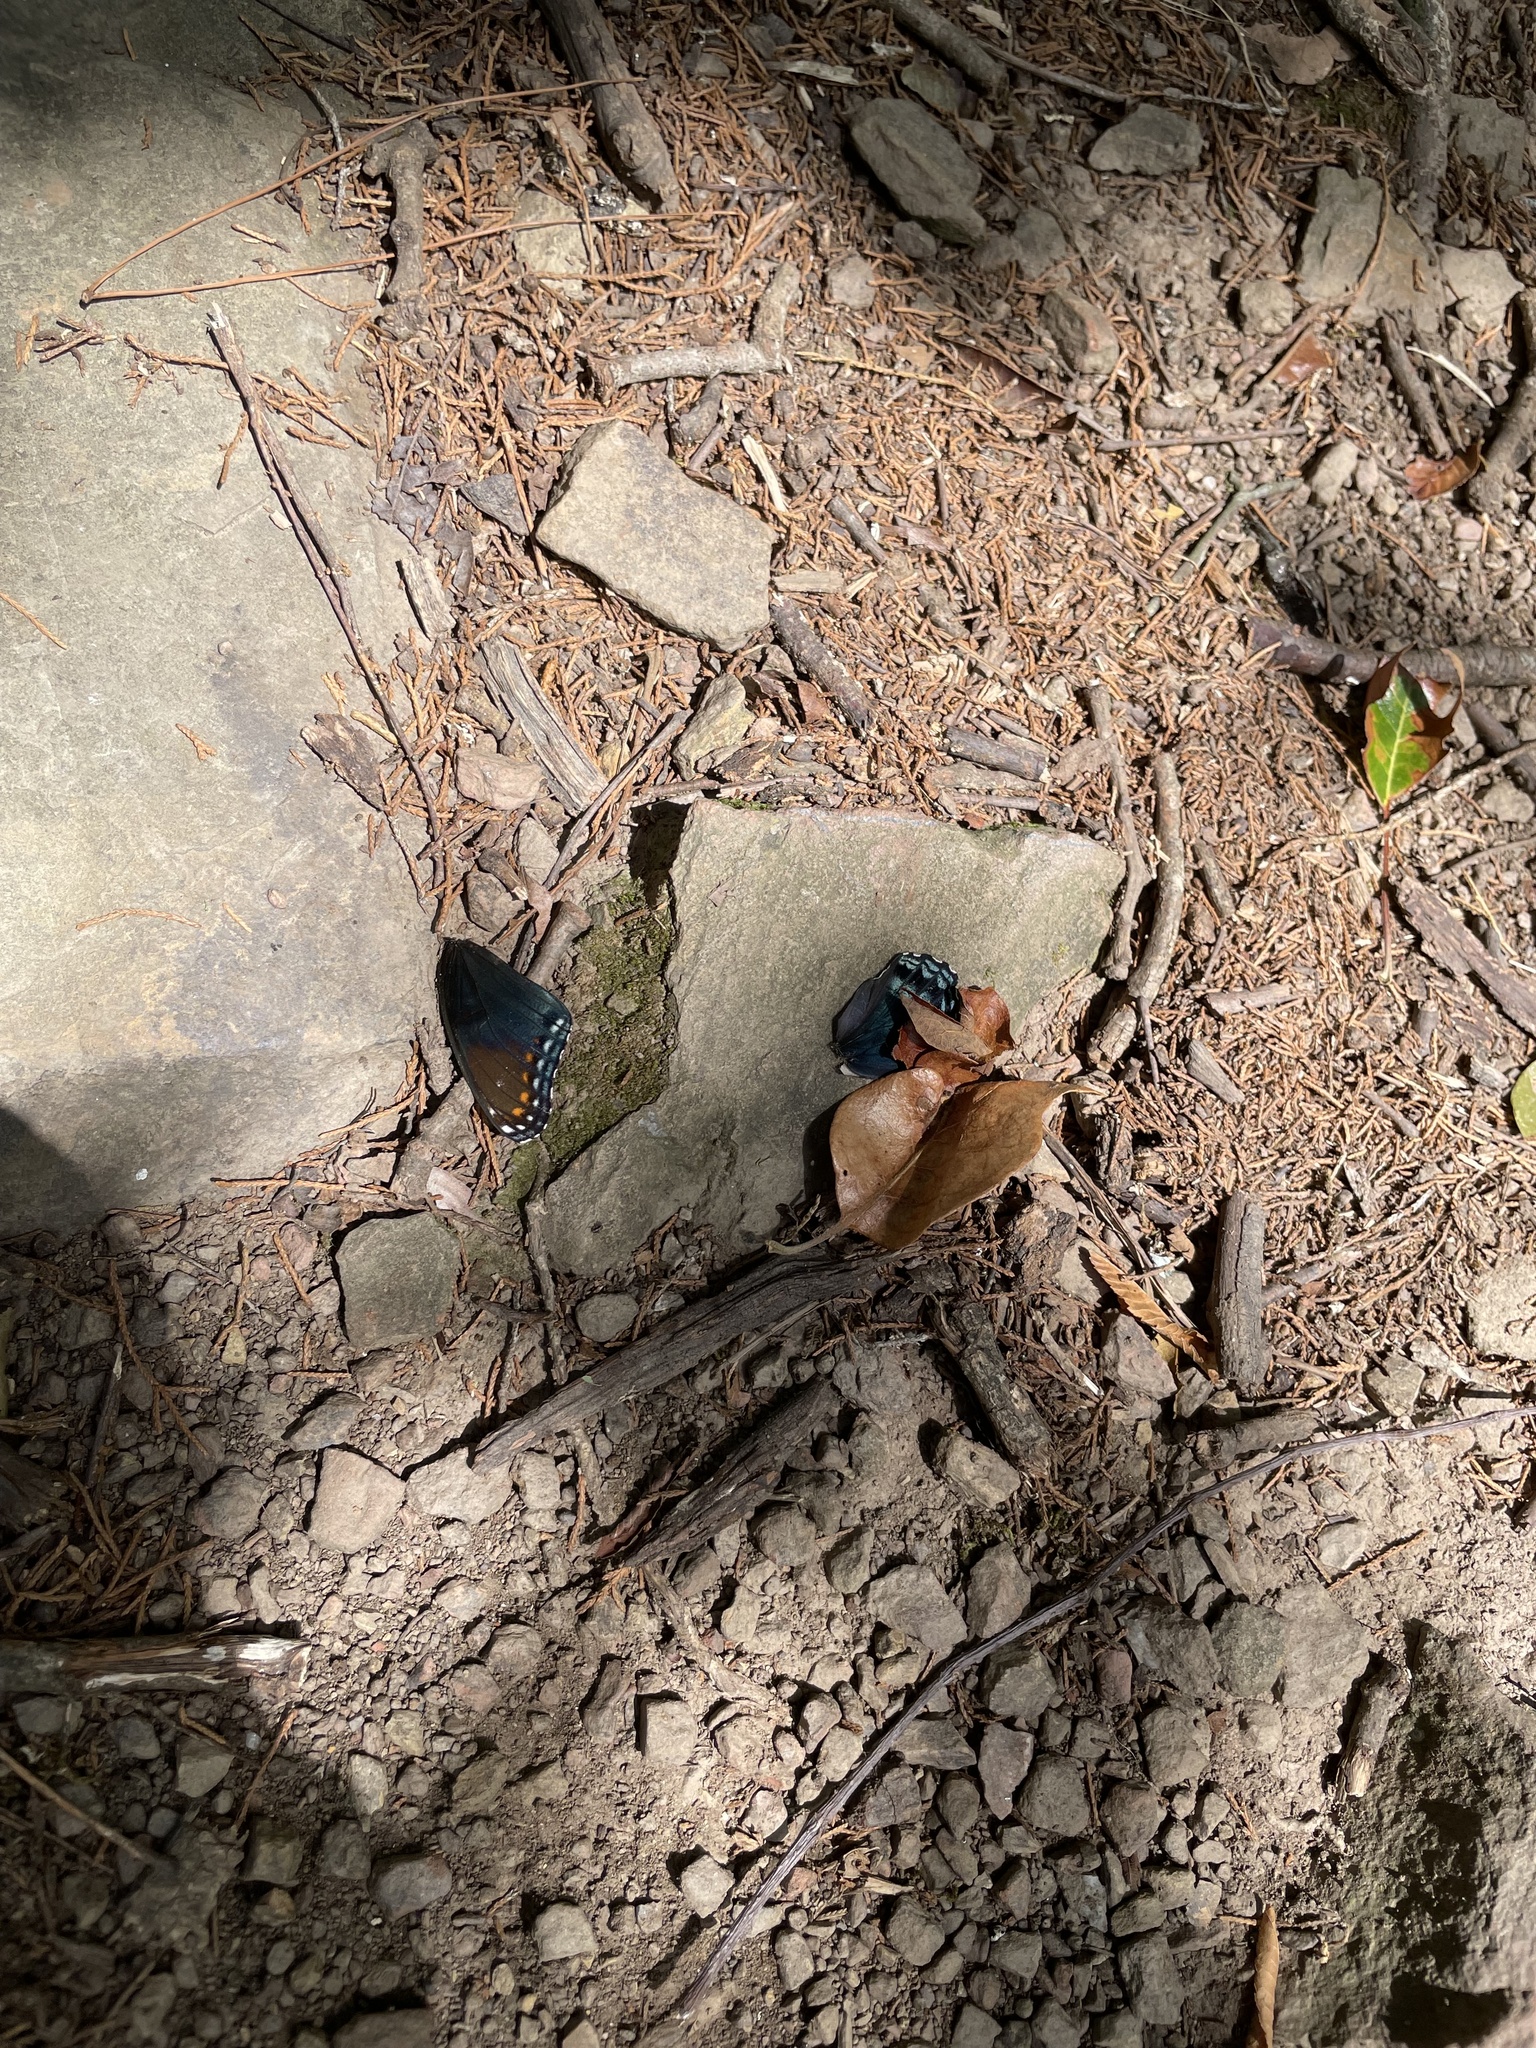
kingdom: Animalia
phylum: Arthropoda
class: Insecta
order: Lepidoptera
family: Nymphalidae
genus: Limenitis
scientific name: Limenitis astyanax
